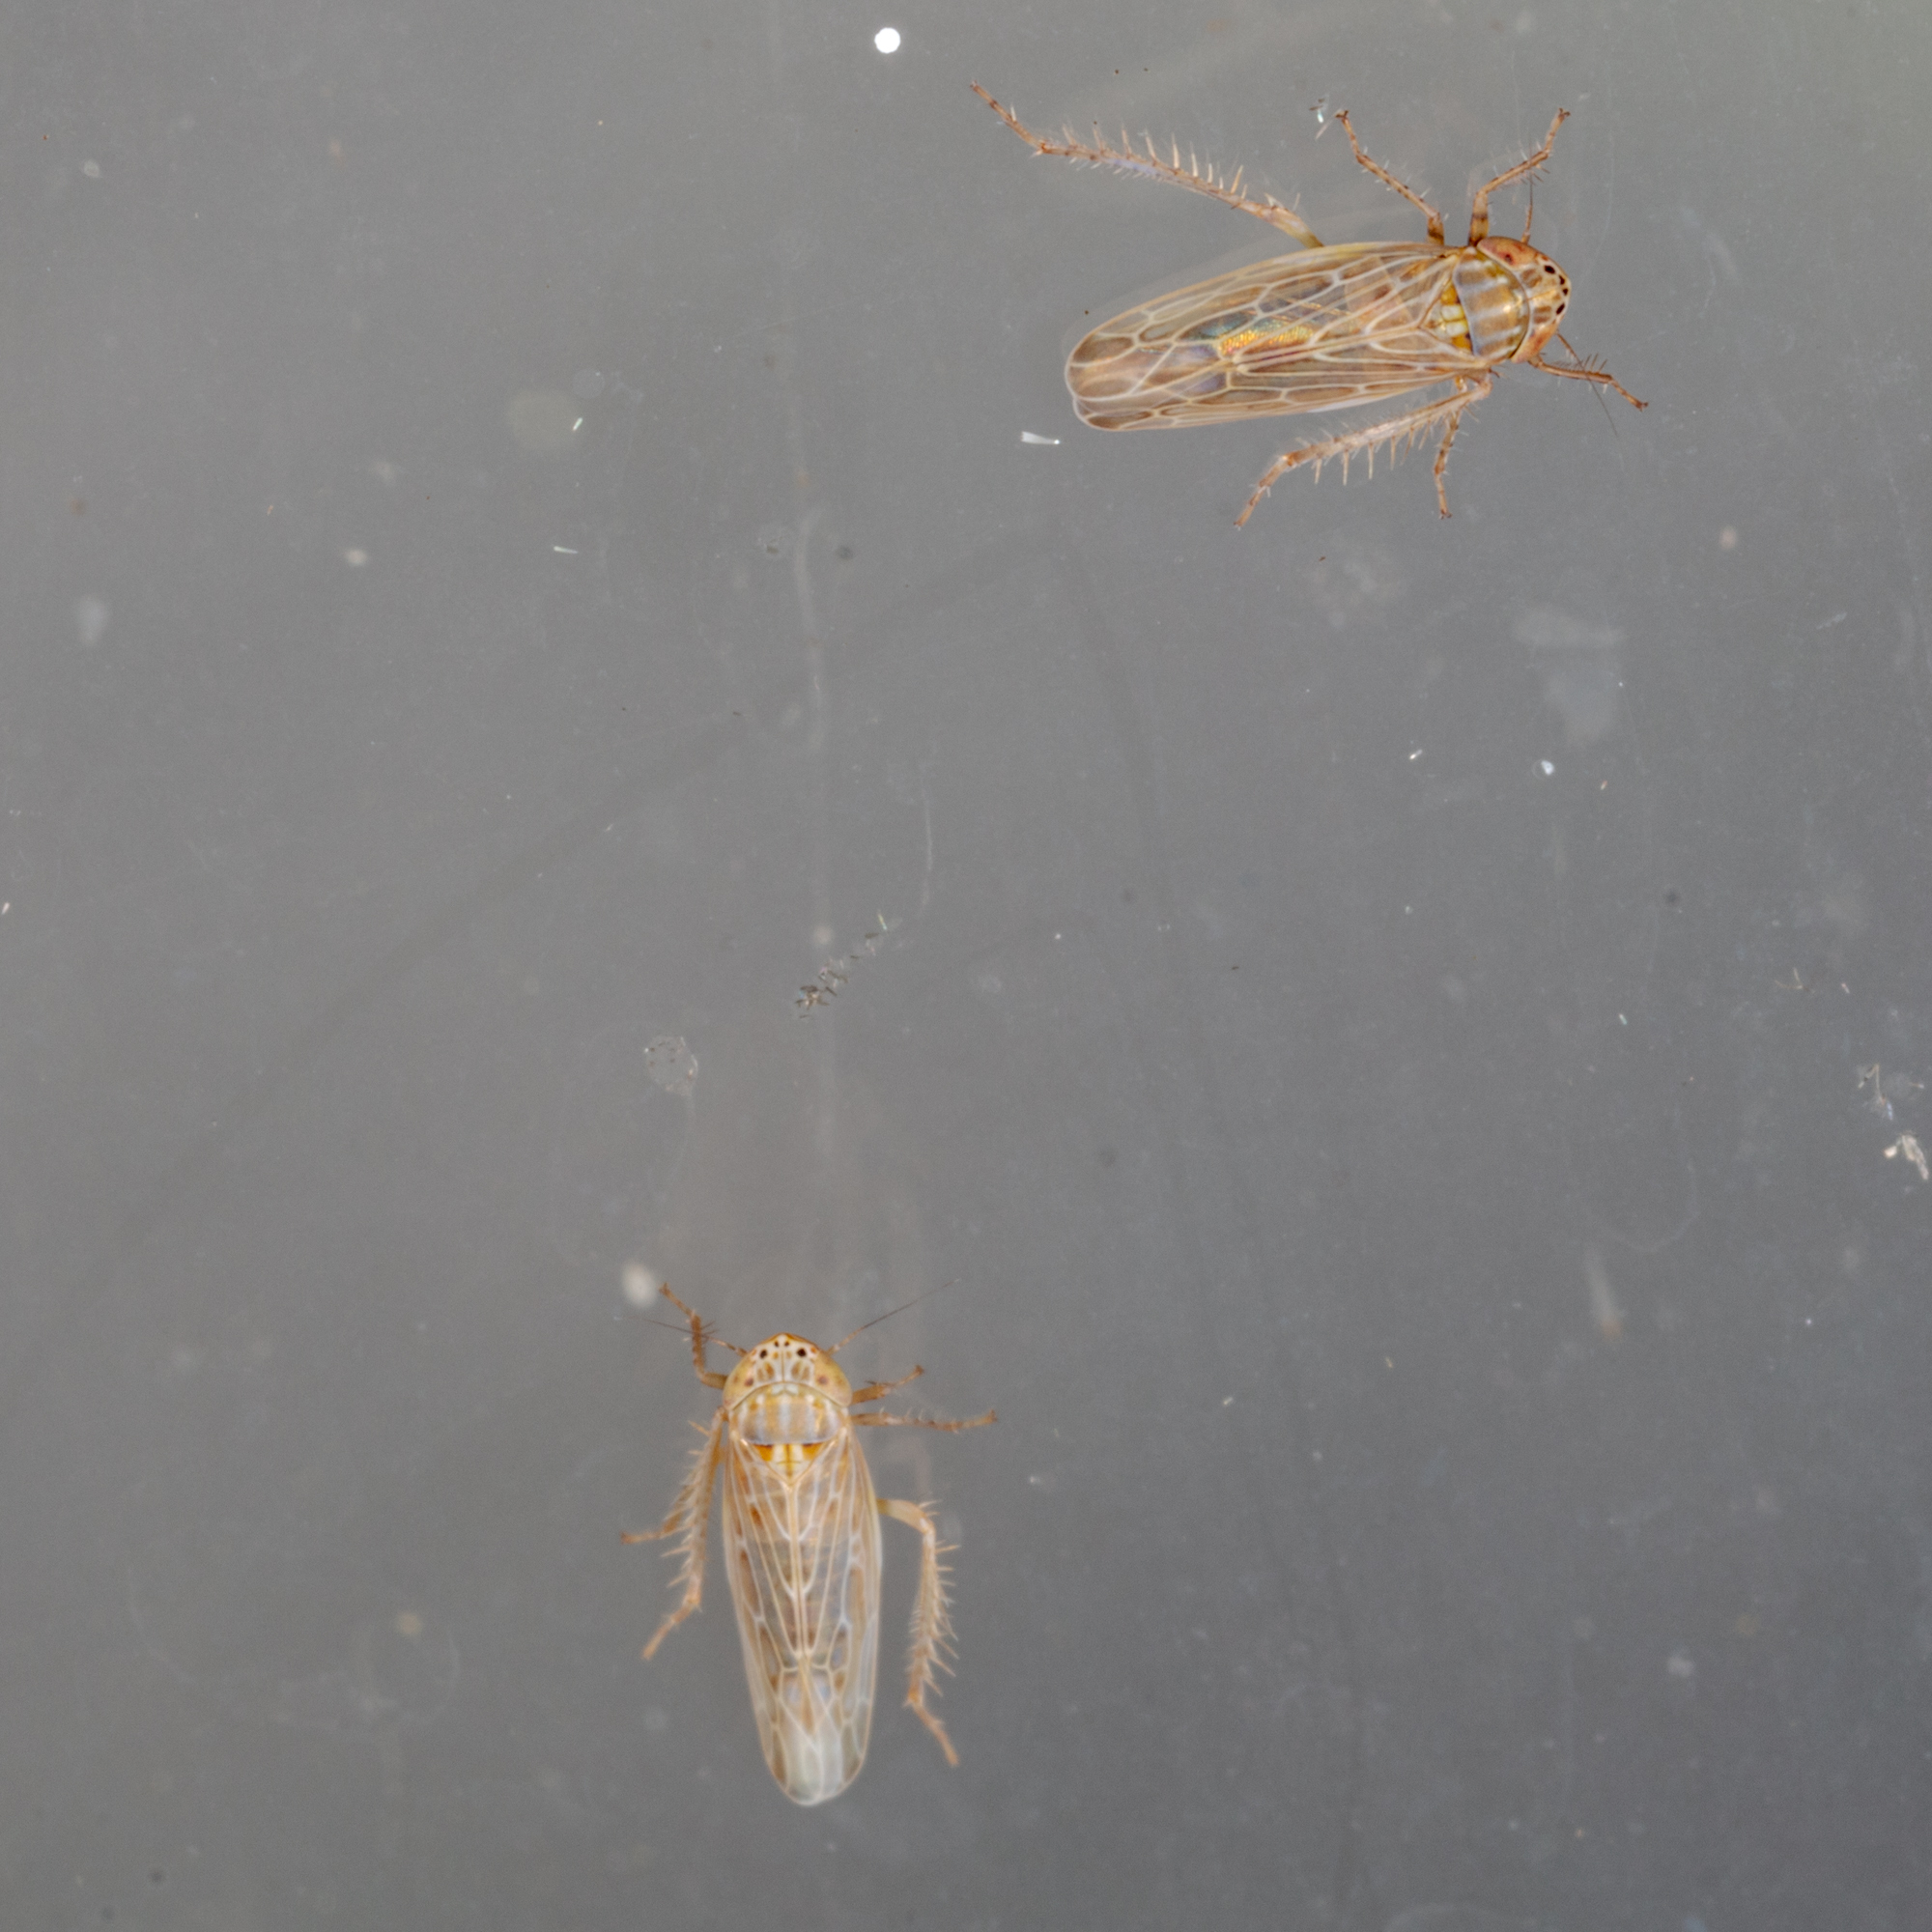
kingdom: Animalia
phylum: Arthropoda
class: Insecta
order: Hemiptera
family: Cicadellidae
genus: Graminella
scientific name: Graminella sonora
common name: Lesser lawn leafhopper
